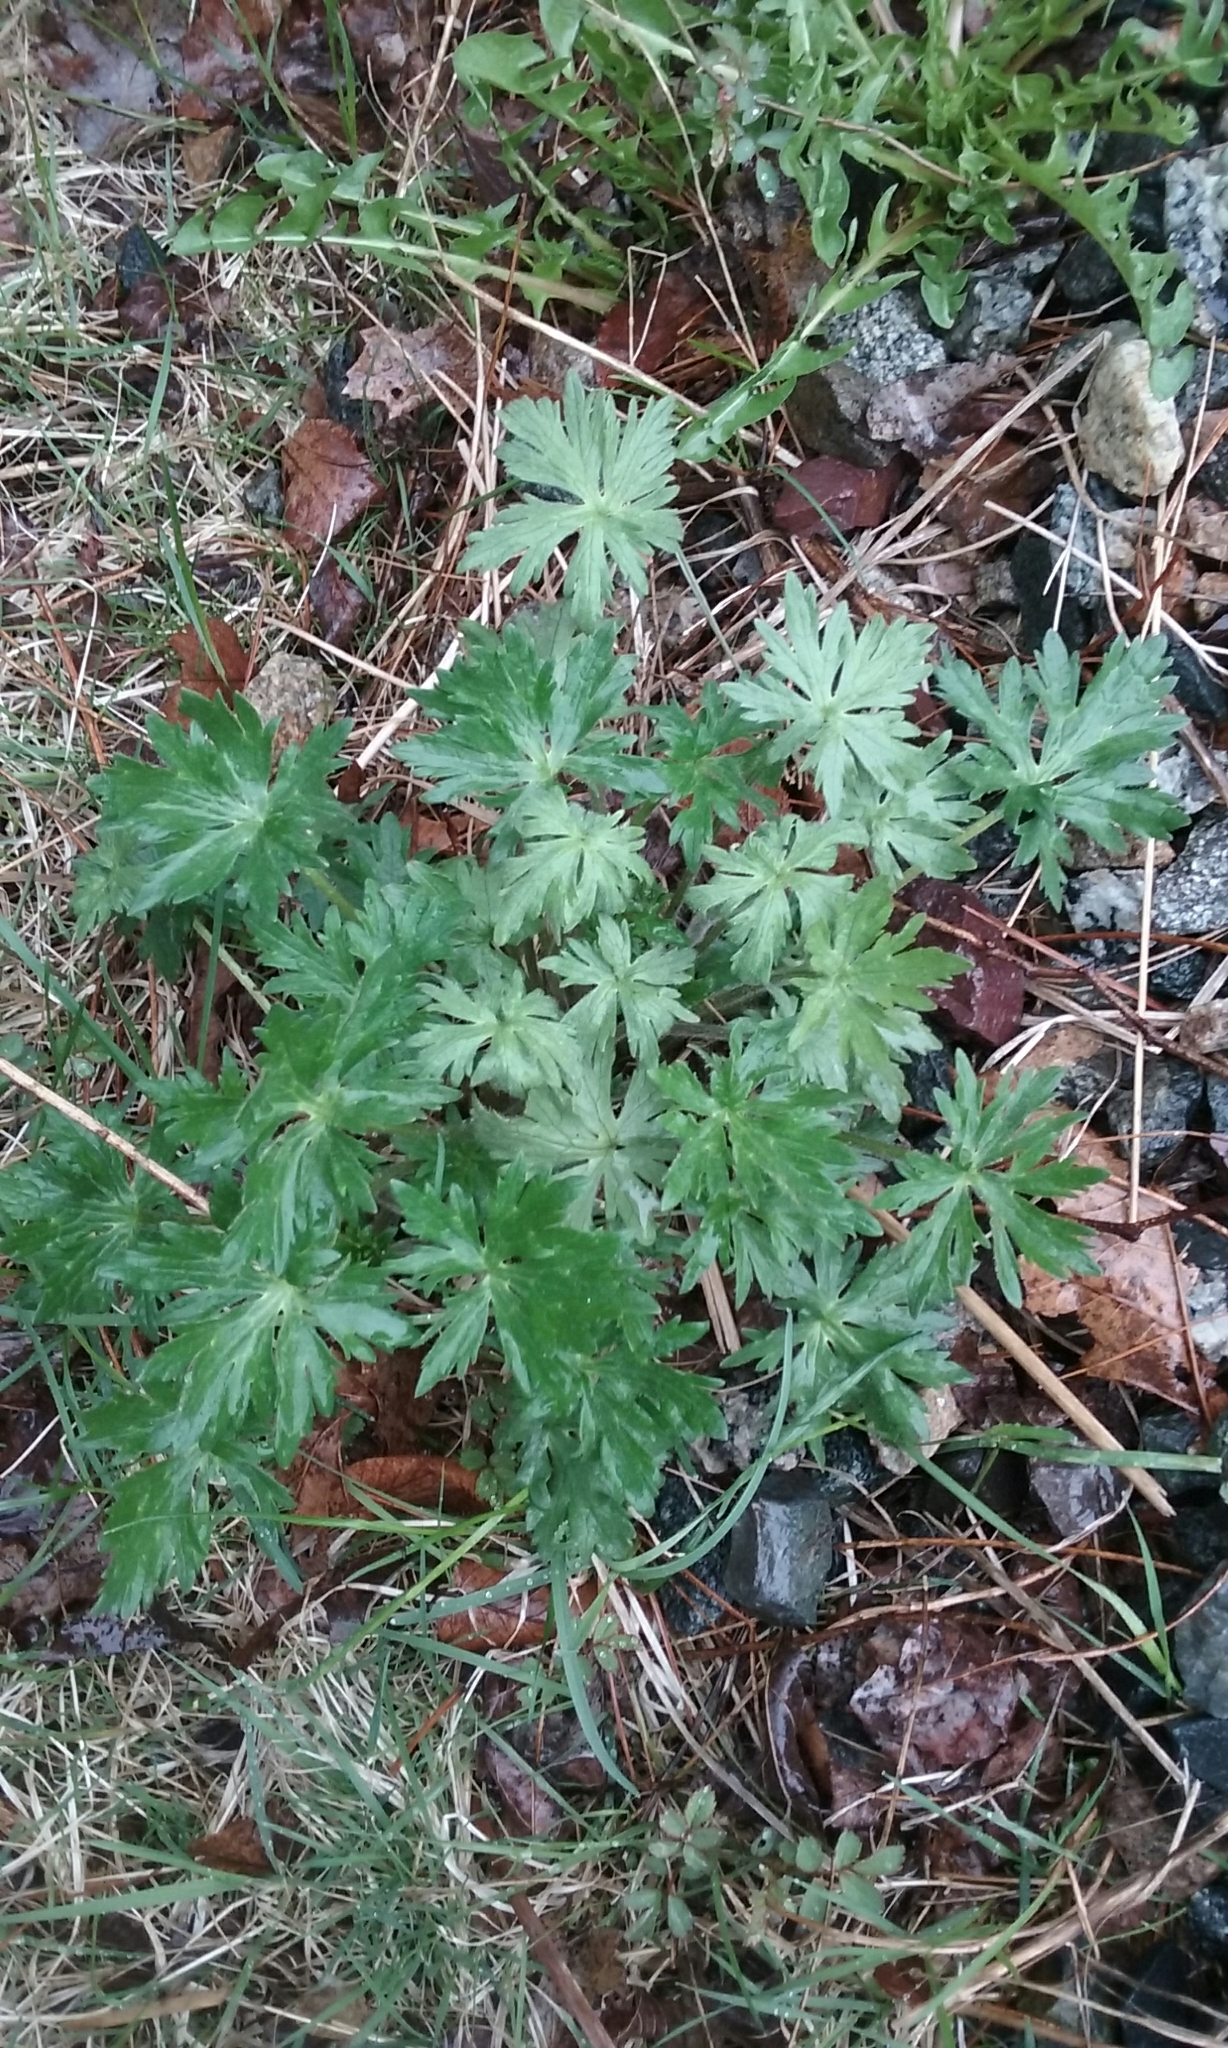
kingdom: Plantae
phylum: Tracheophyta
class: Magnoliopsida
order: Ranunculales
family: Ranunculaceae
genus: Ranunculus
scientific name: Ranunculus
